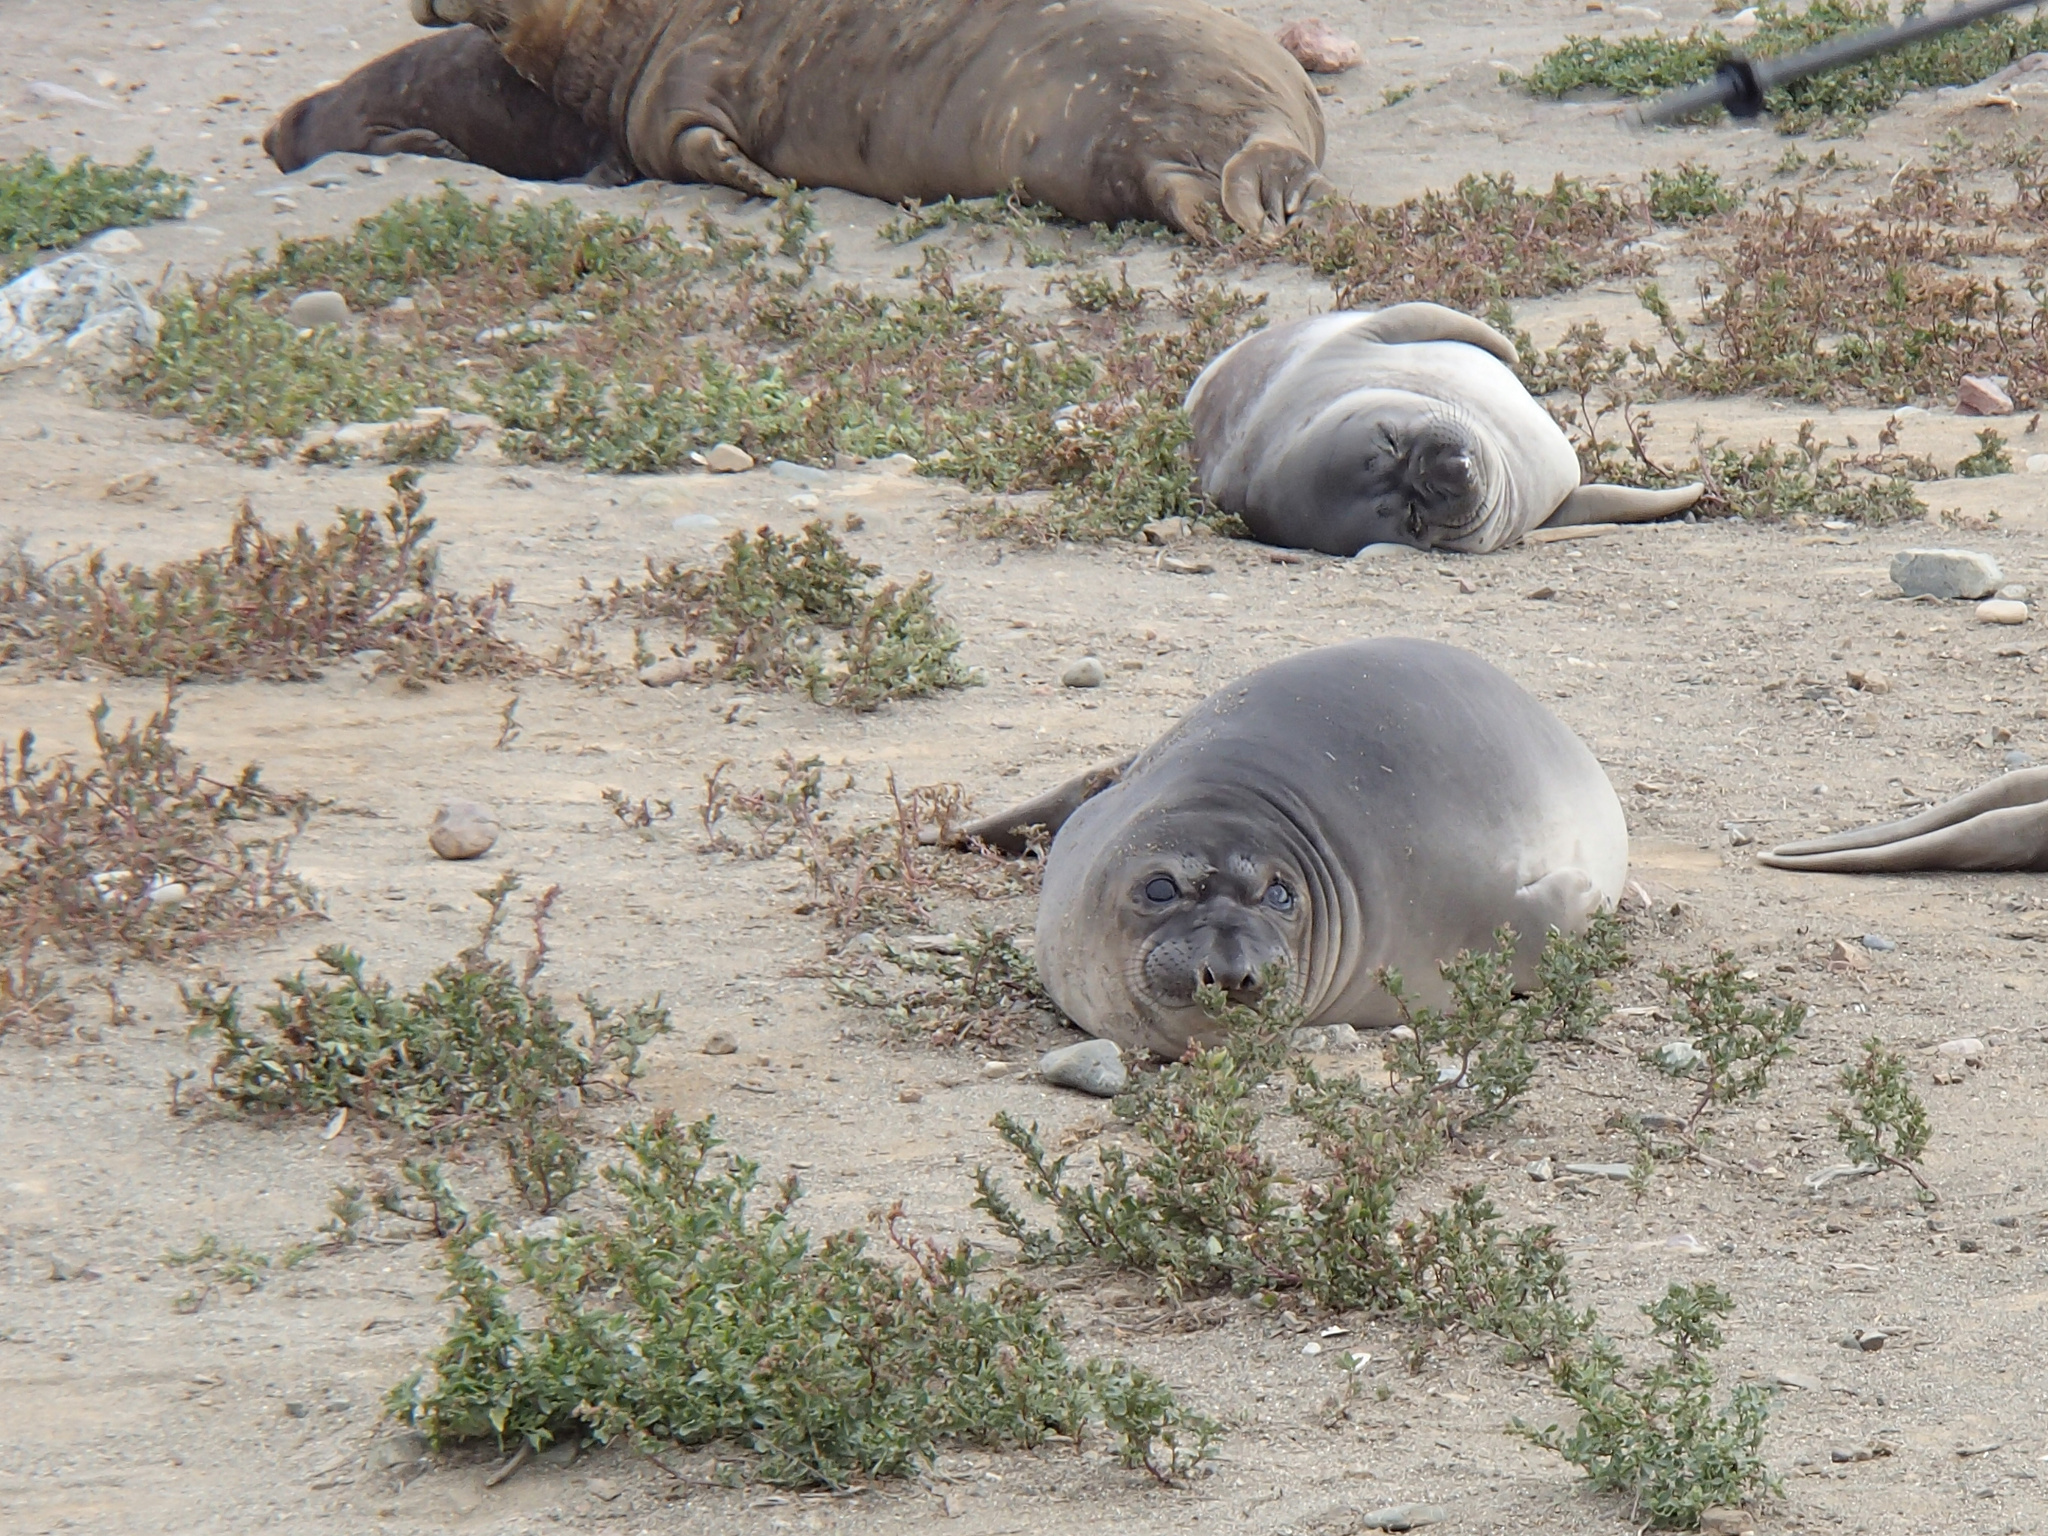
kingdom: Animalia
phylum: Chordata
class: Mammalia
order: Carnivora
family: Phocidae
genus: Mirounga
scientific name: Mirounga angustirostris
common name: Northern elephant seal
